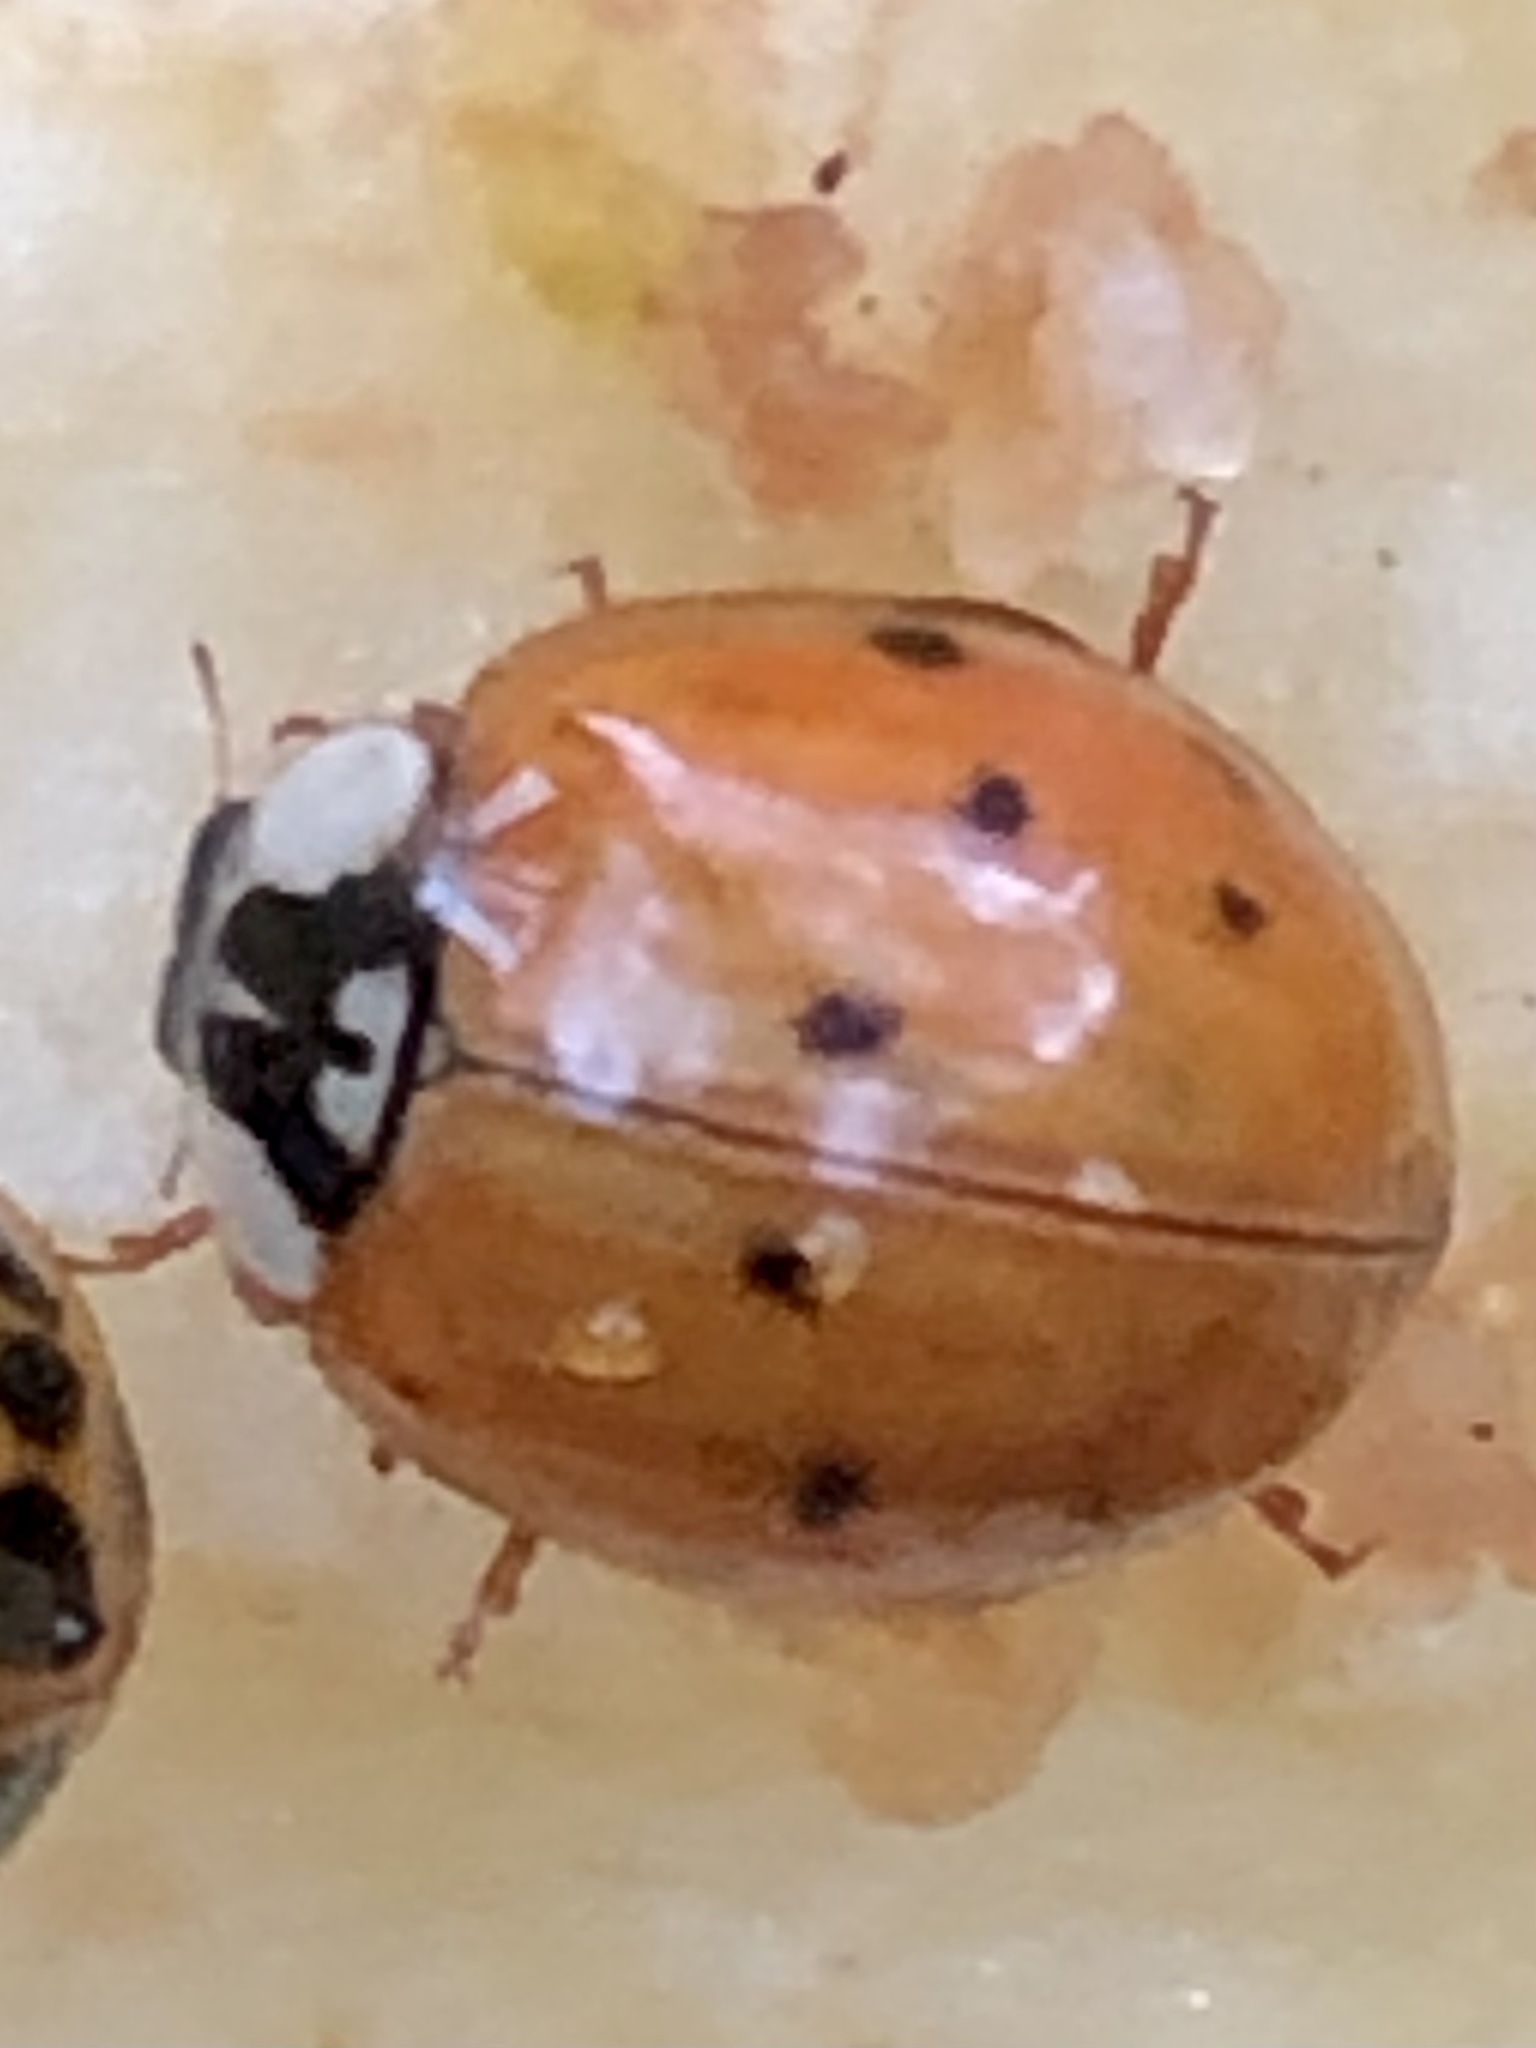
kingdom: Animalia
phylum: Arthropoda
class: Insecta
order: Coleoptera
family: Coccinellidae
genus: Harmonia
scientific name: Harmonia axyridis
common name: Harlequin ladybird
